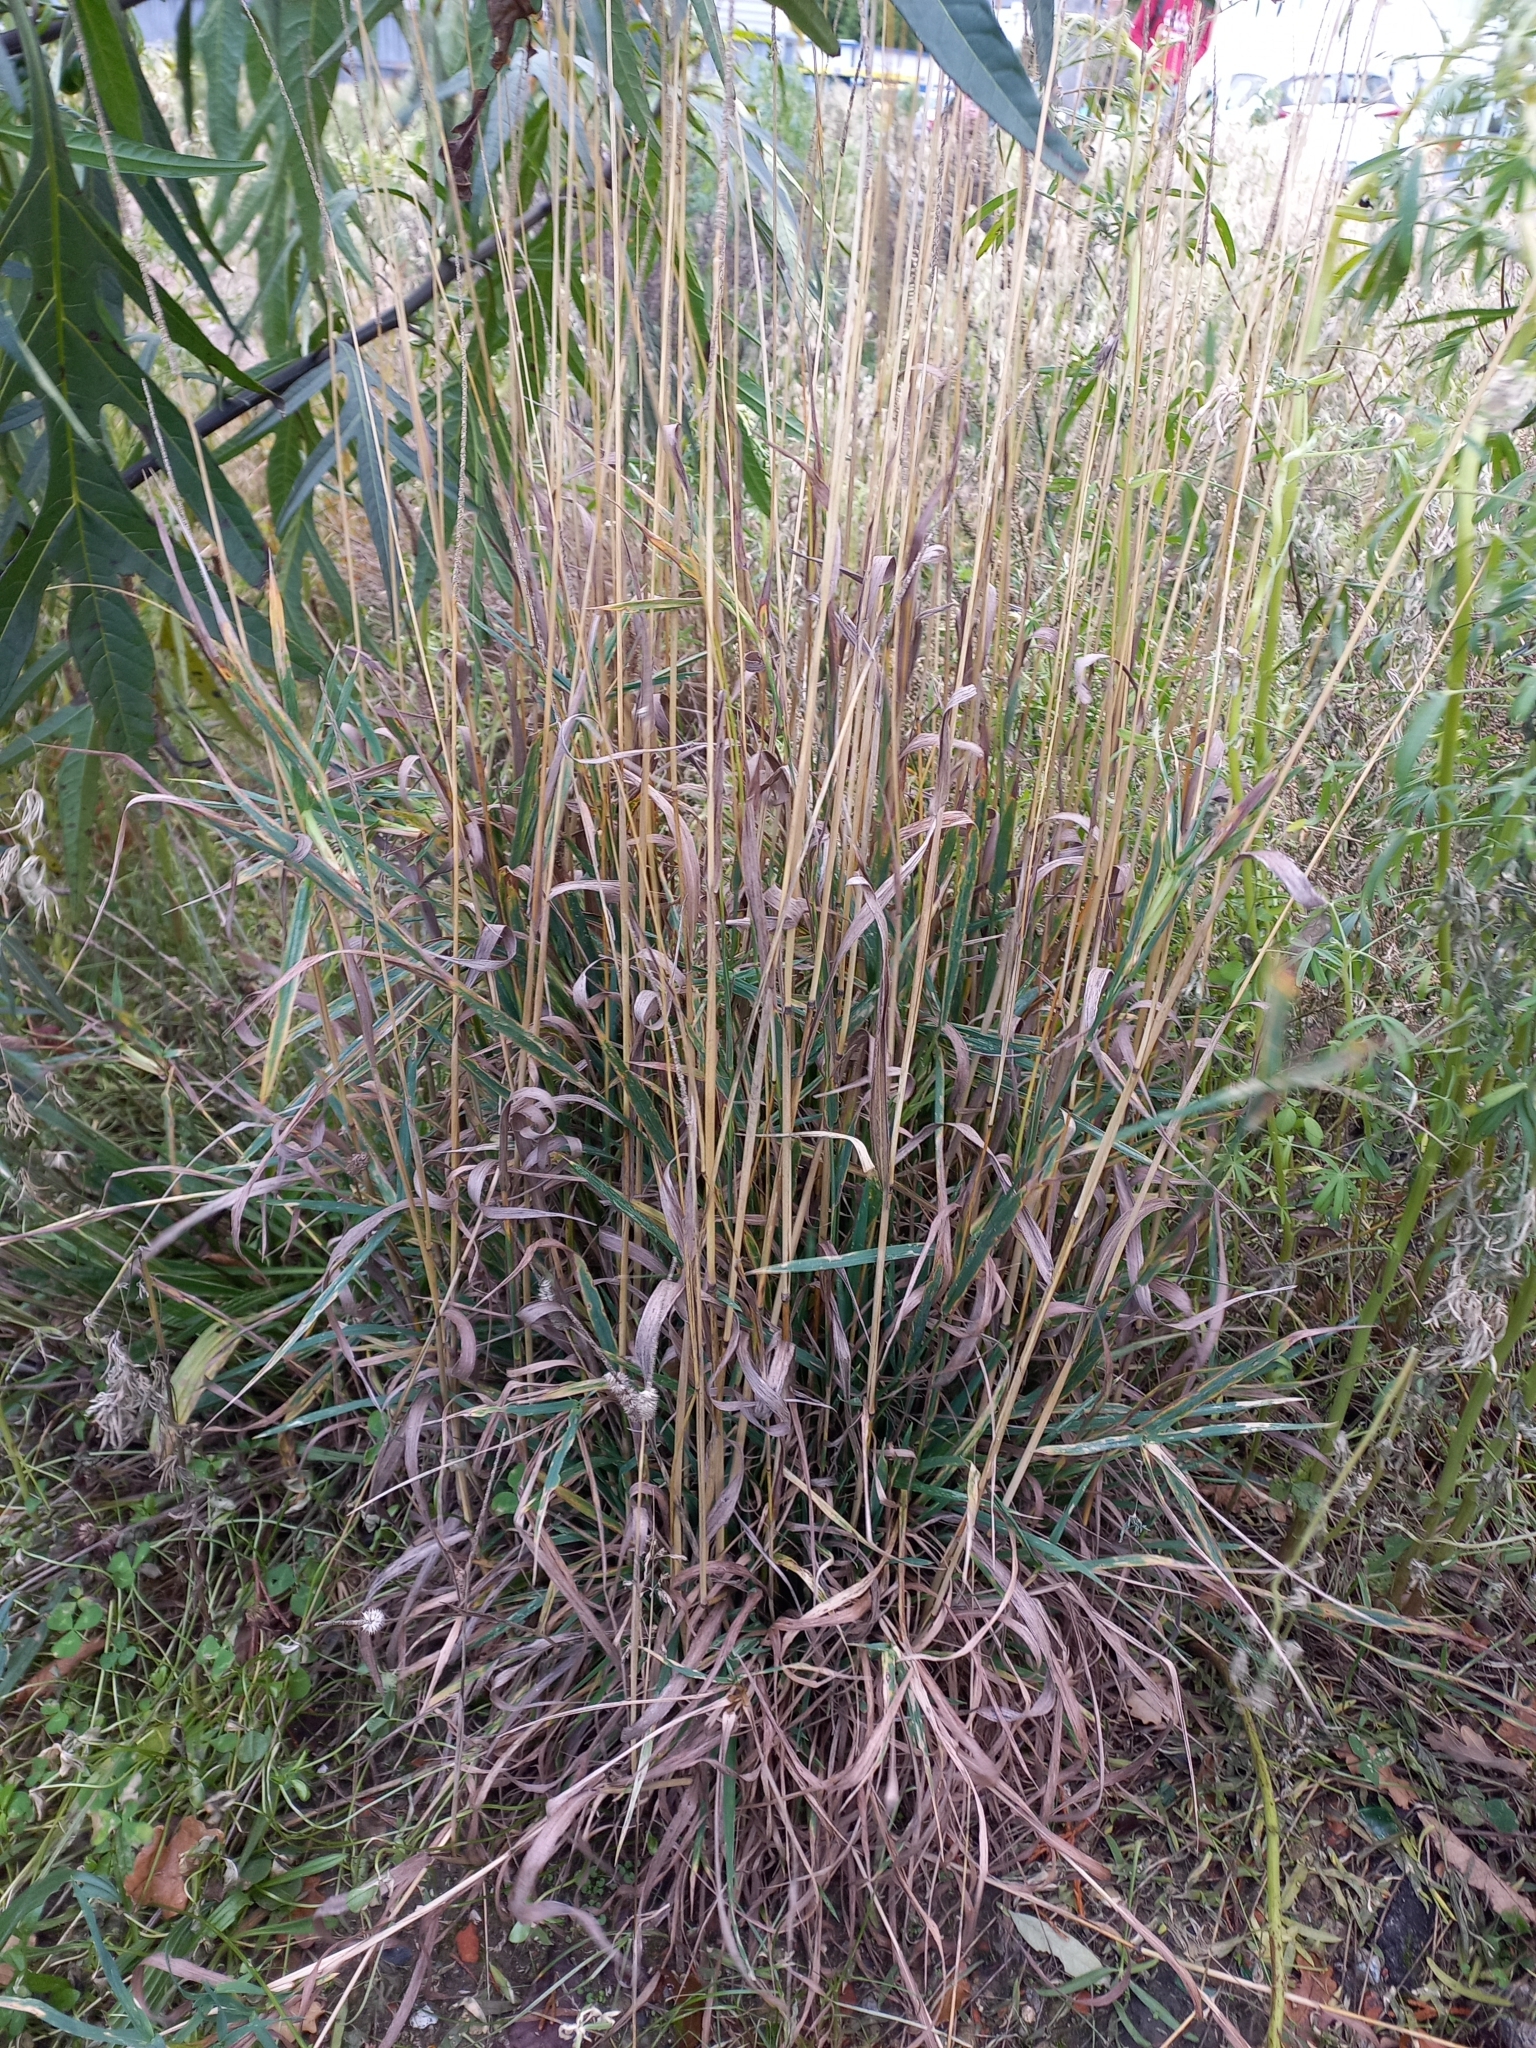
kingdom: Plantae
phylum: Tracheophyta
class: Liliopsida
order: Poales
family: Poaceae
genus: Dactylis
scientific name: Dactylis glomerata
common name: Orchardgrass
